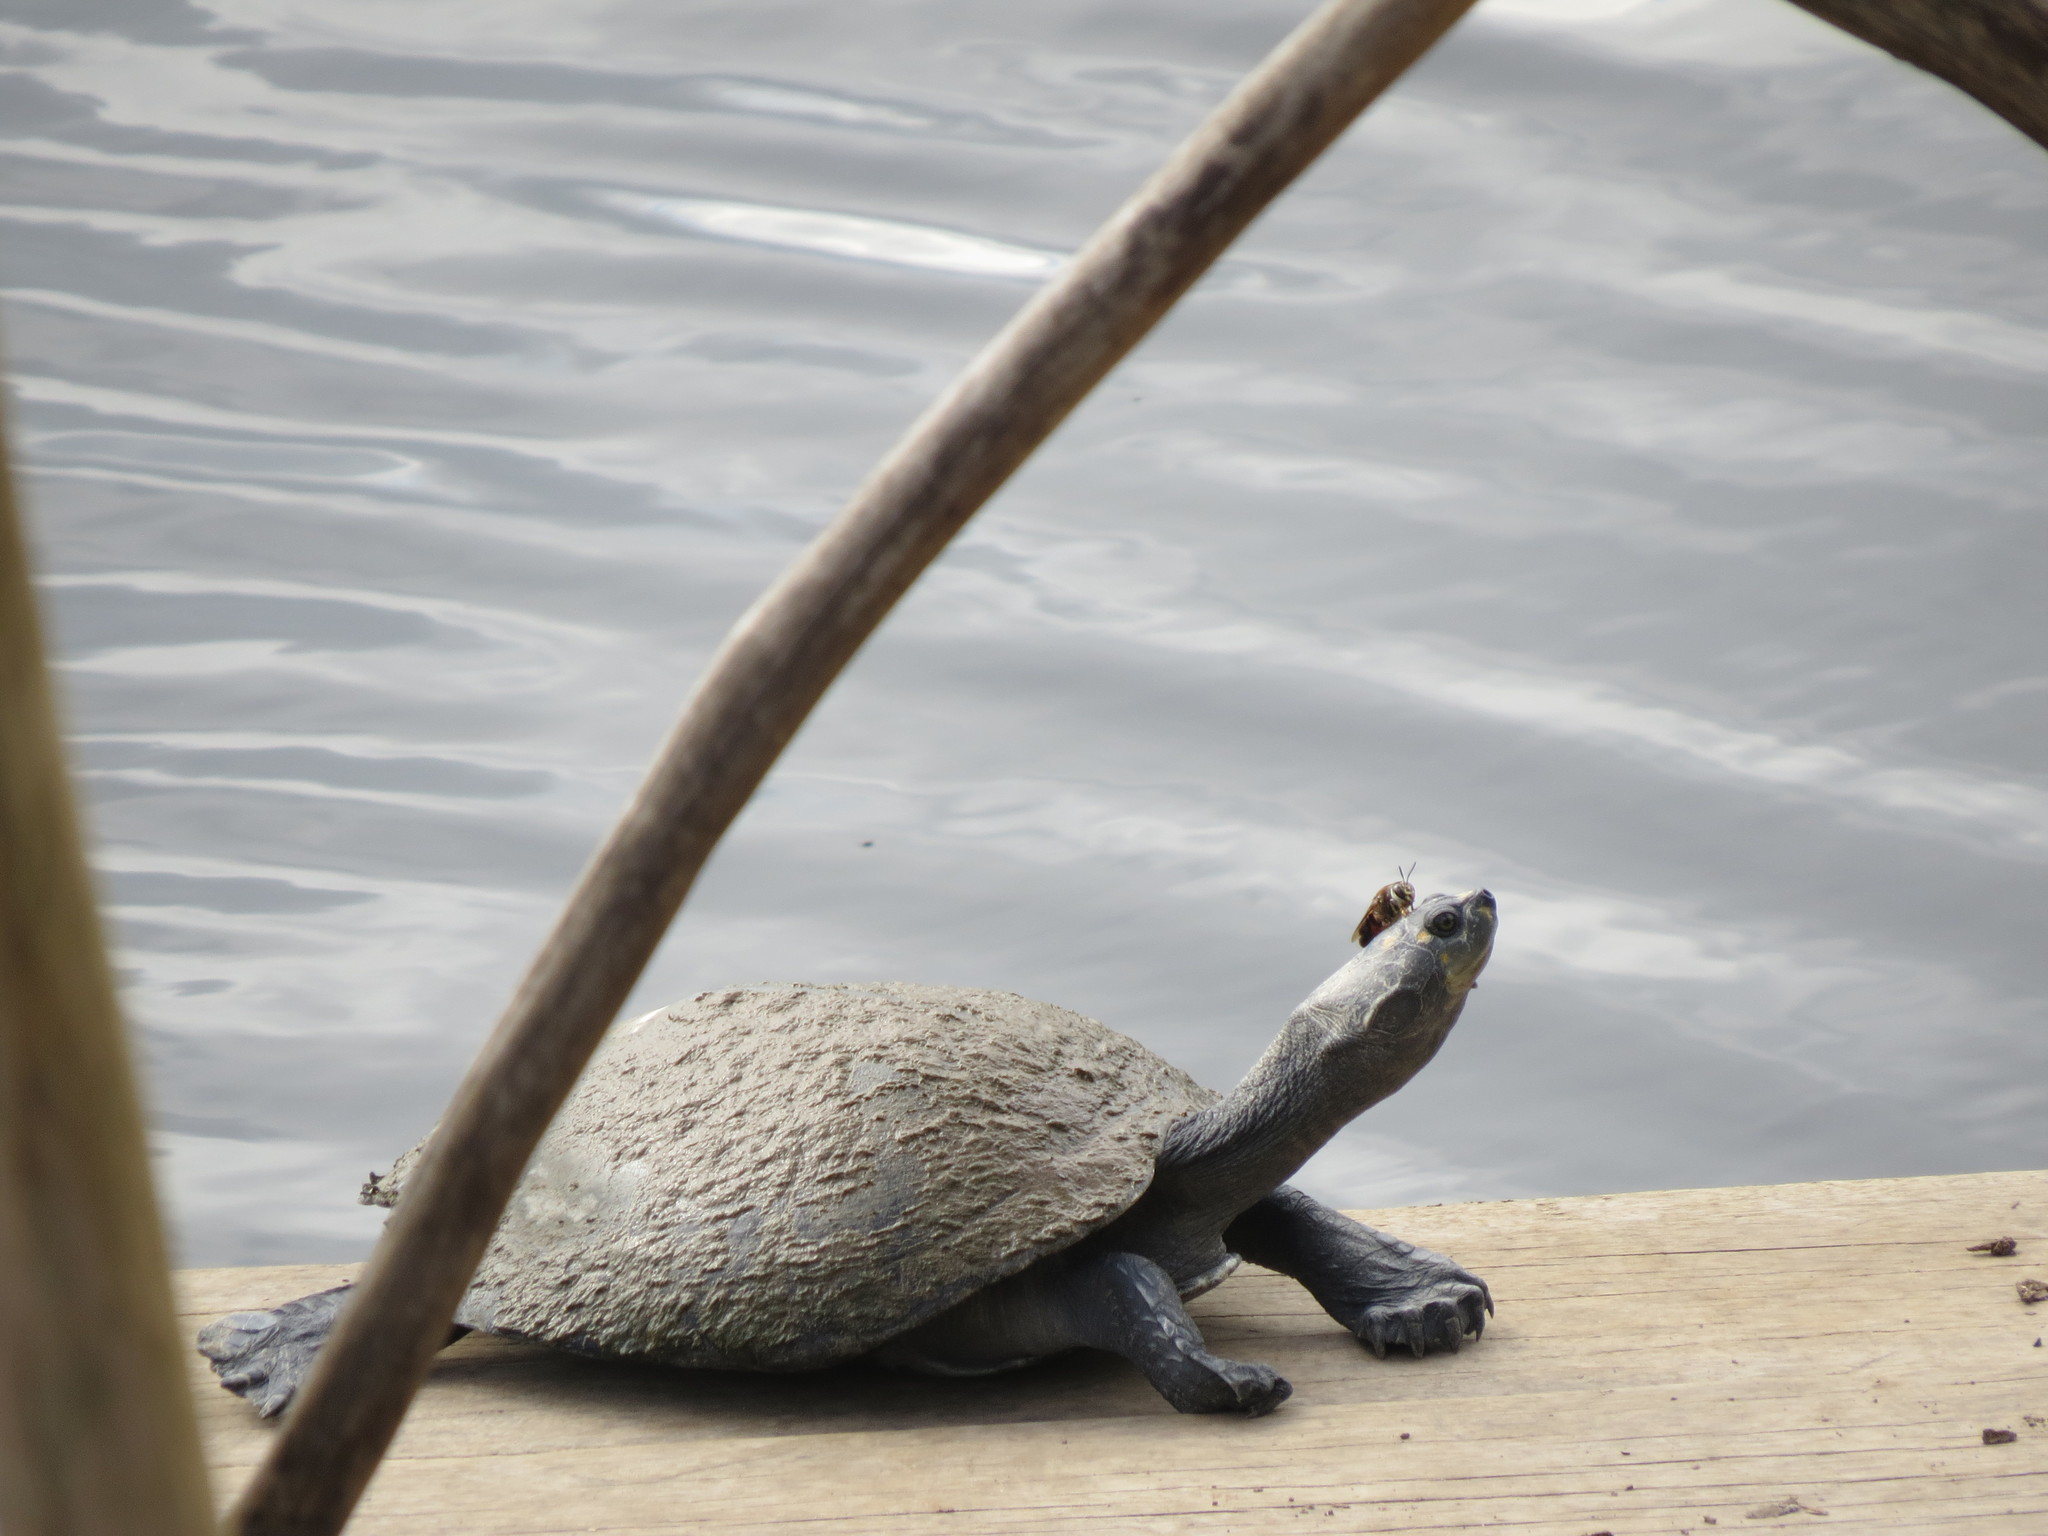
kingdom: Animalia
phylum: Chordata
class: Testudines
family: Podocnemididae
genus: Podocnemis
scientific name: Podocnemis unifilis
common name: Yellow-spotted amazon river turtle
